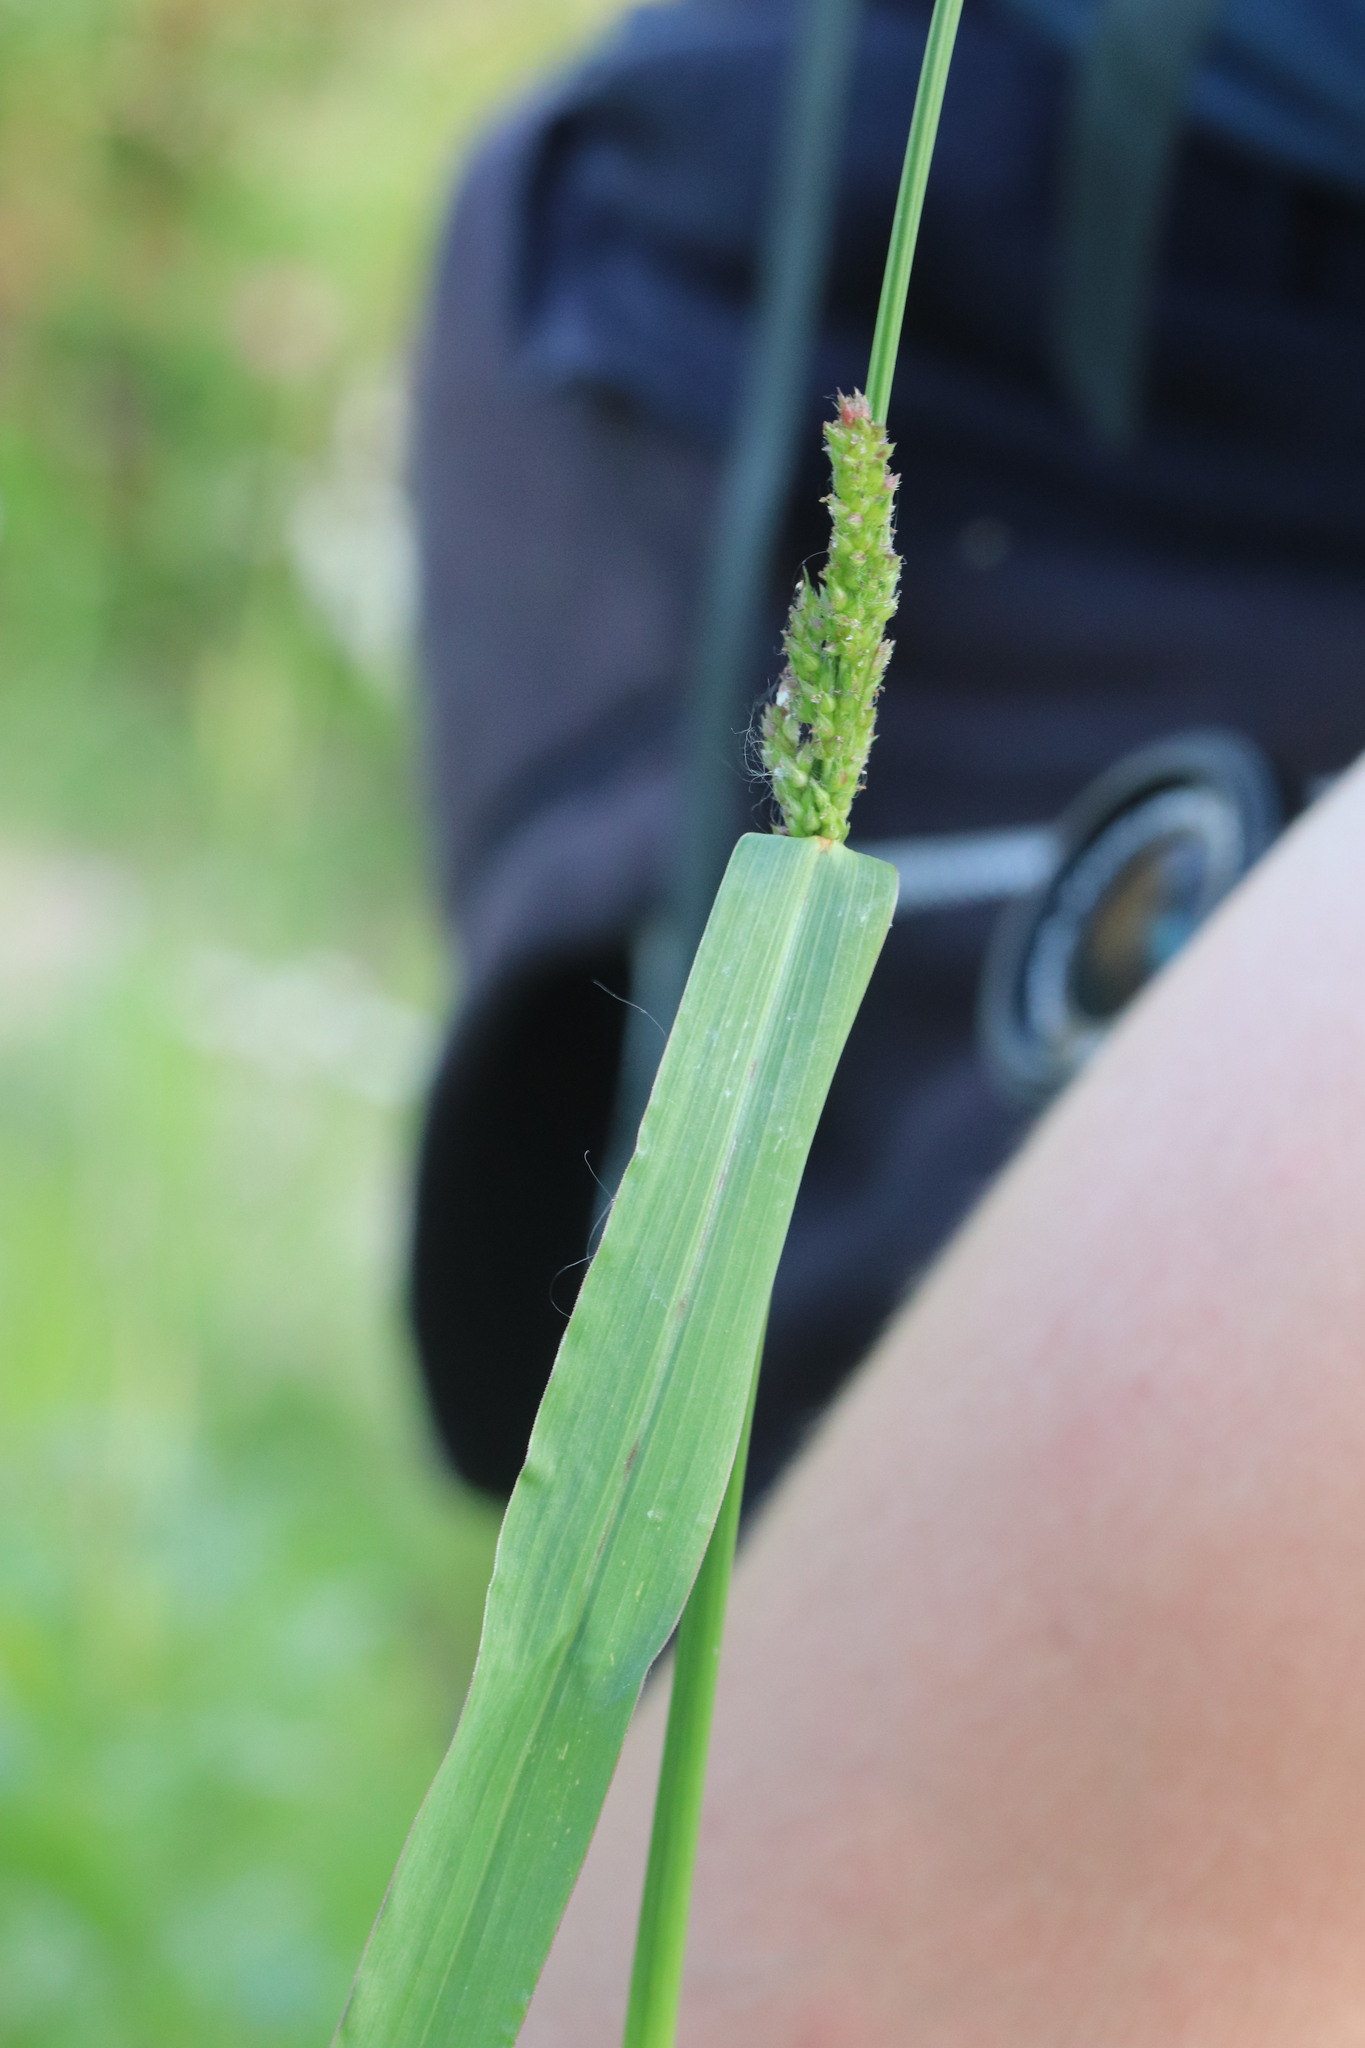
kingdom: Plantae
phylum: Tracheophyta
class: Liliopsida
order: Poales
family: Poaceae
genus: Echinochloa
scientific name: Echinochloa crus-galli
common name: Cockspur
